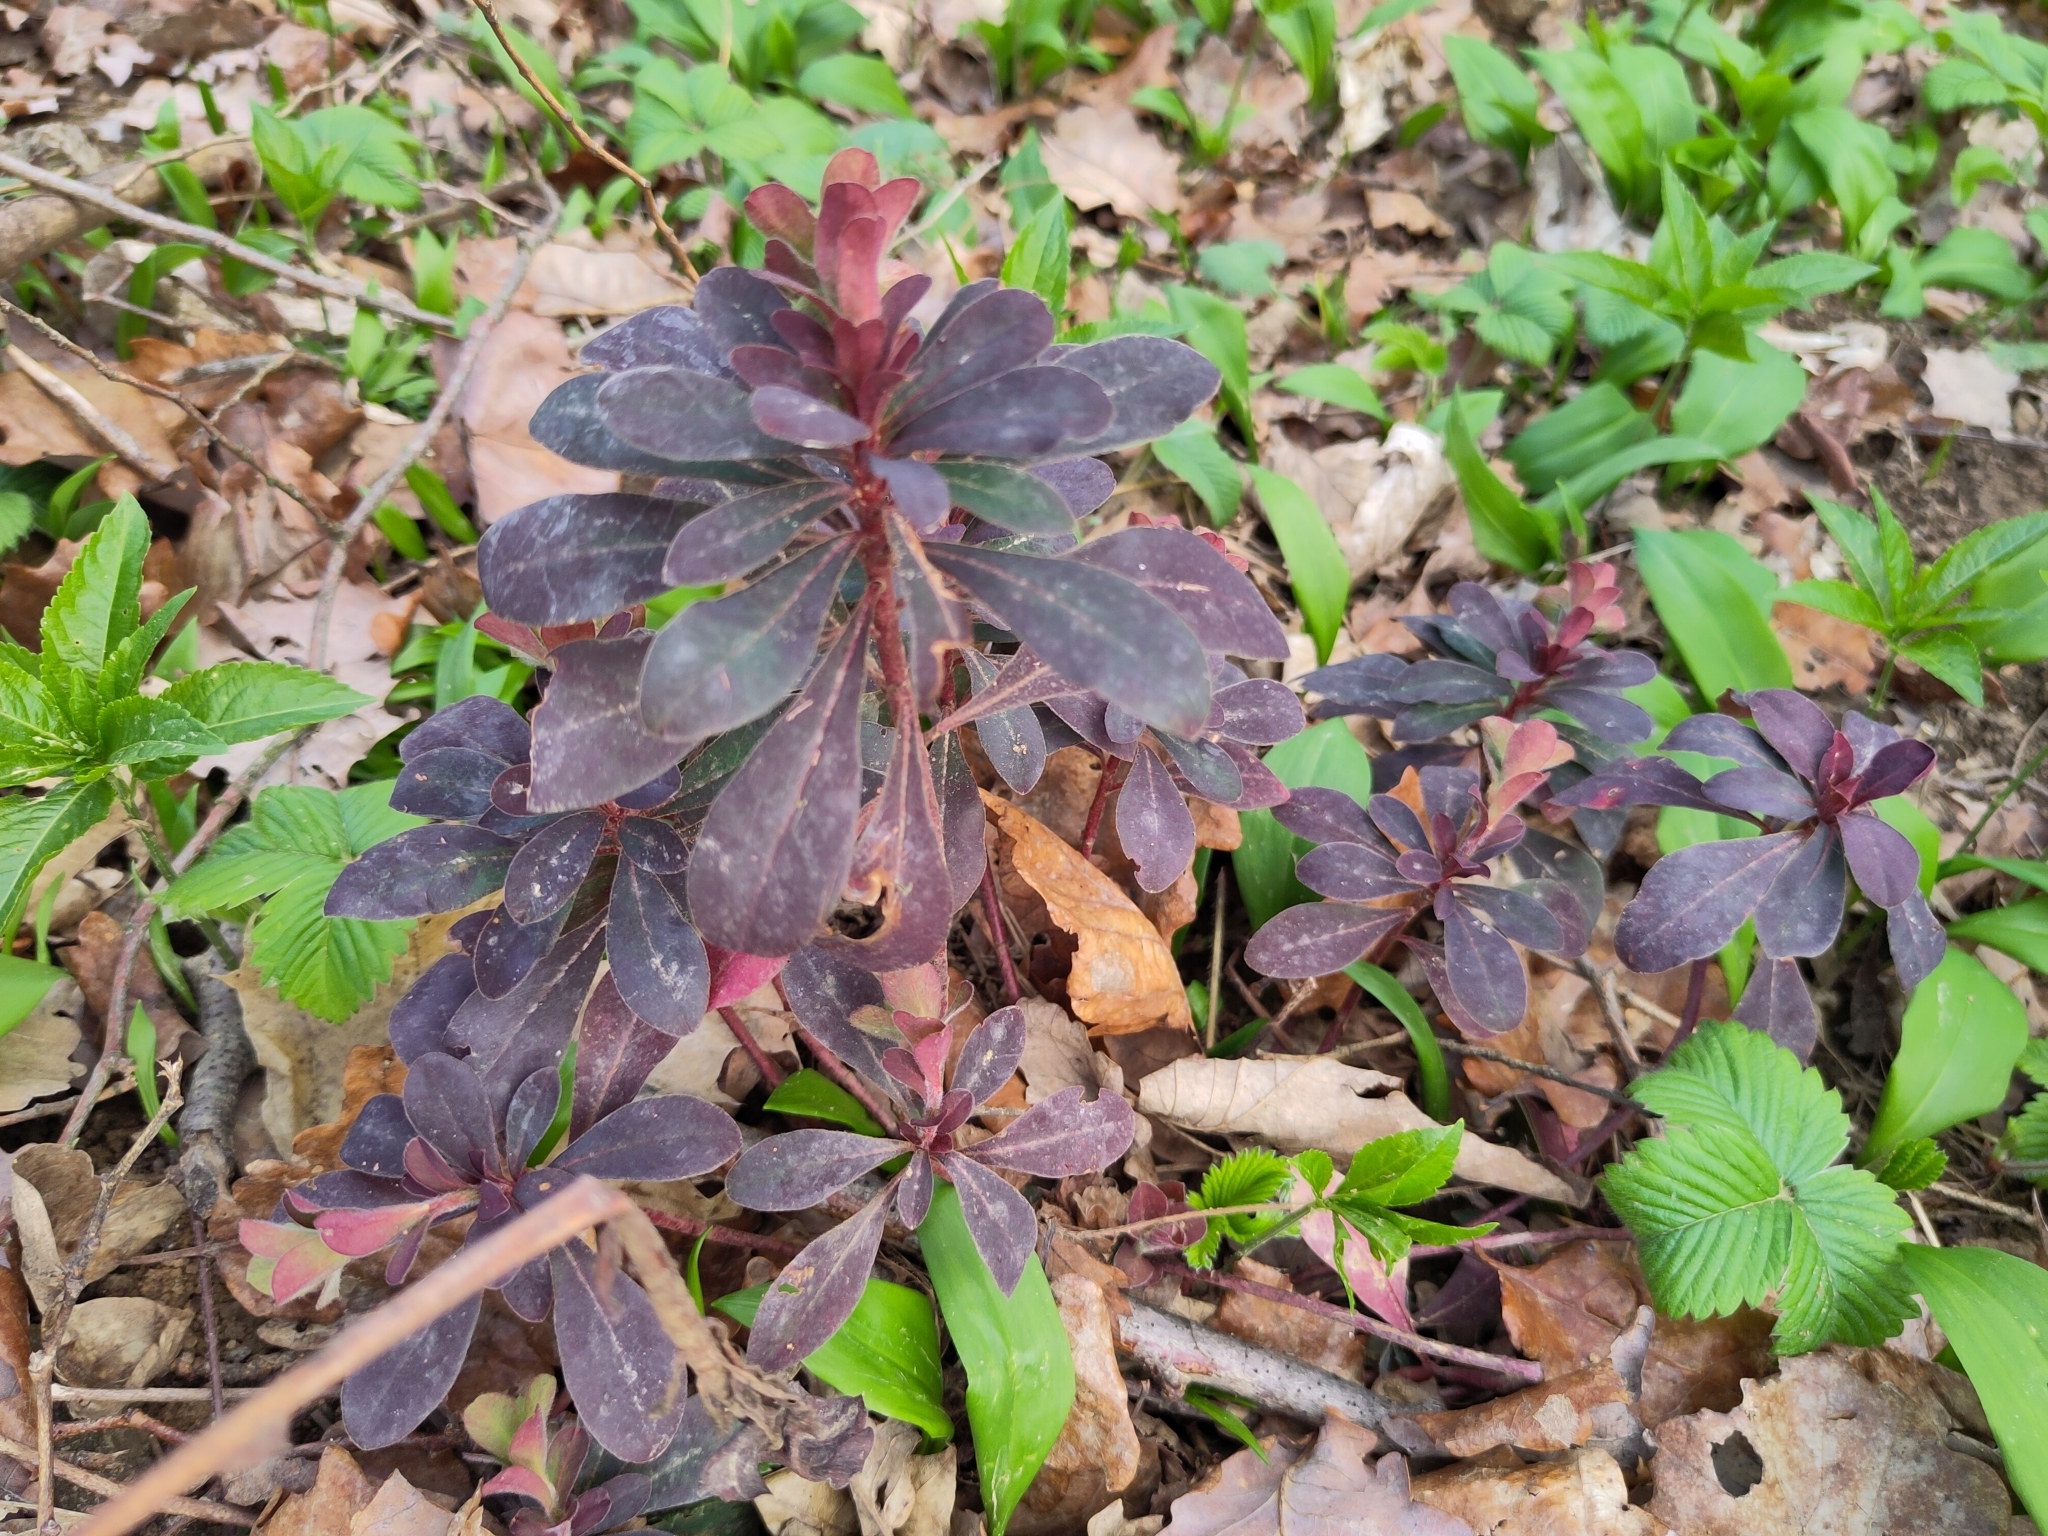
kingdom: Plantae
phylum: Tracheophyta
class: Magnoliopsida
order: Malpighiales
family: Euphorbiaceae
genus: Euphorbia
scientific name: Euphorbia amygdaloides
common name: Wood spurge
